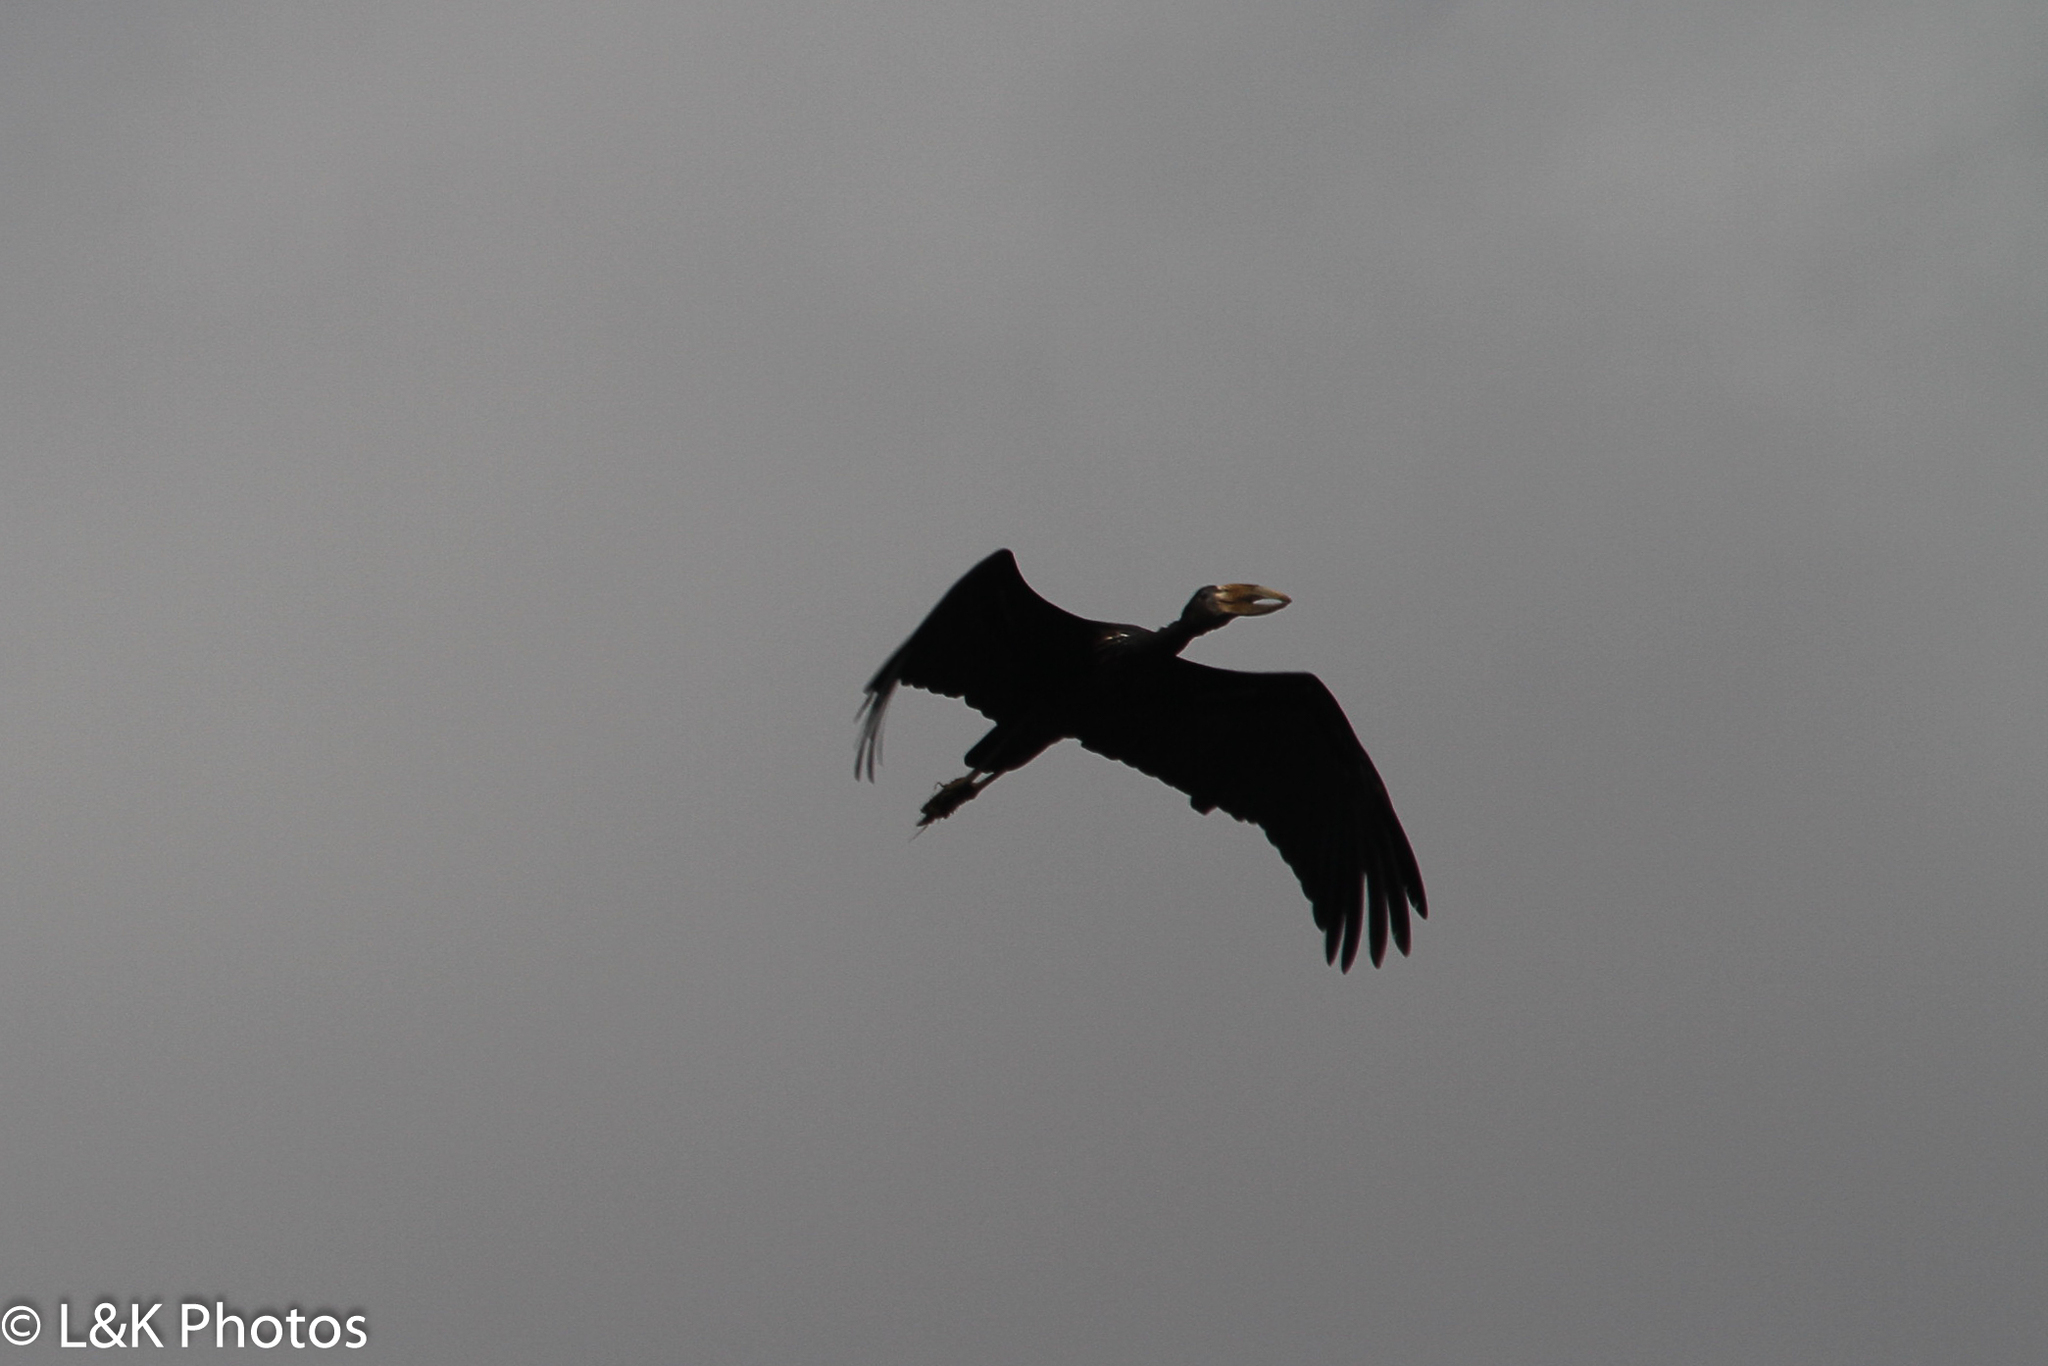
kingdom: Animalia
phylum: Chordata
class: Aves
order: Ciconiiformes
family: Ciconiidae
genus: Anastomus
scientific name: Anastomus lamelligerus
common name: African openbill
